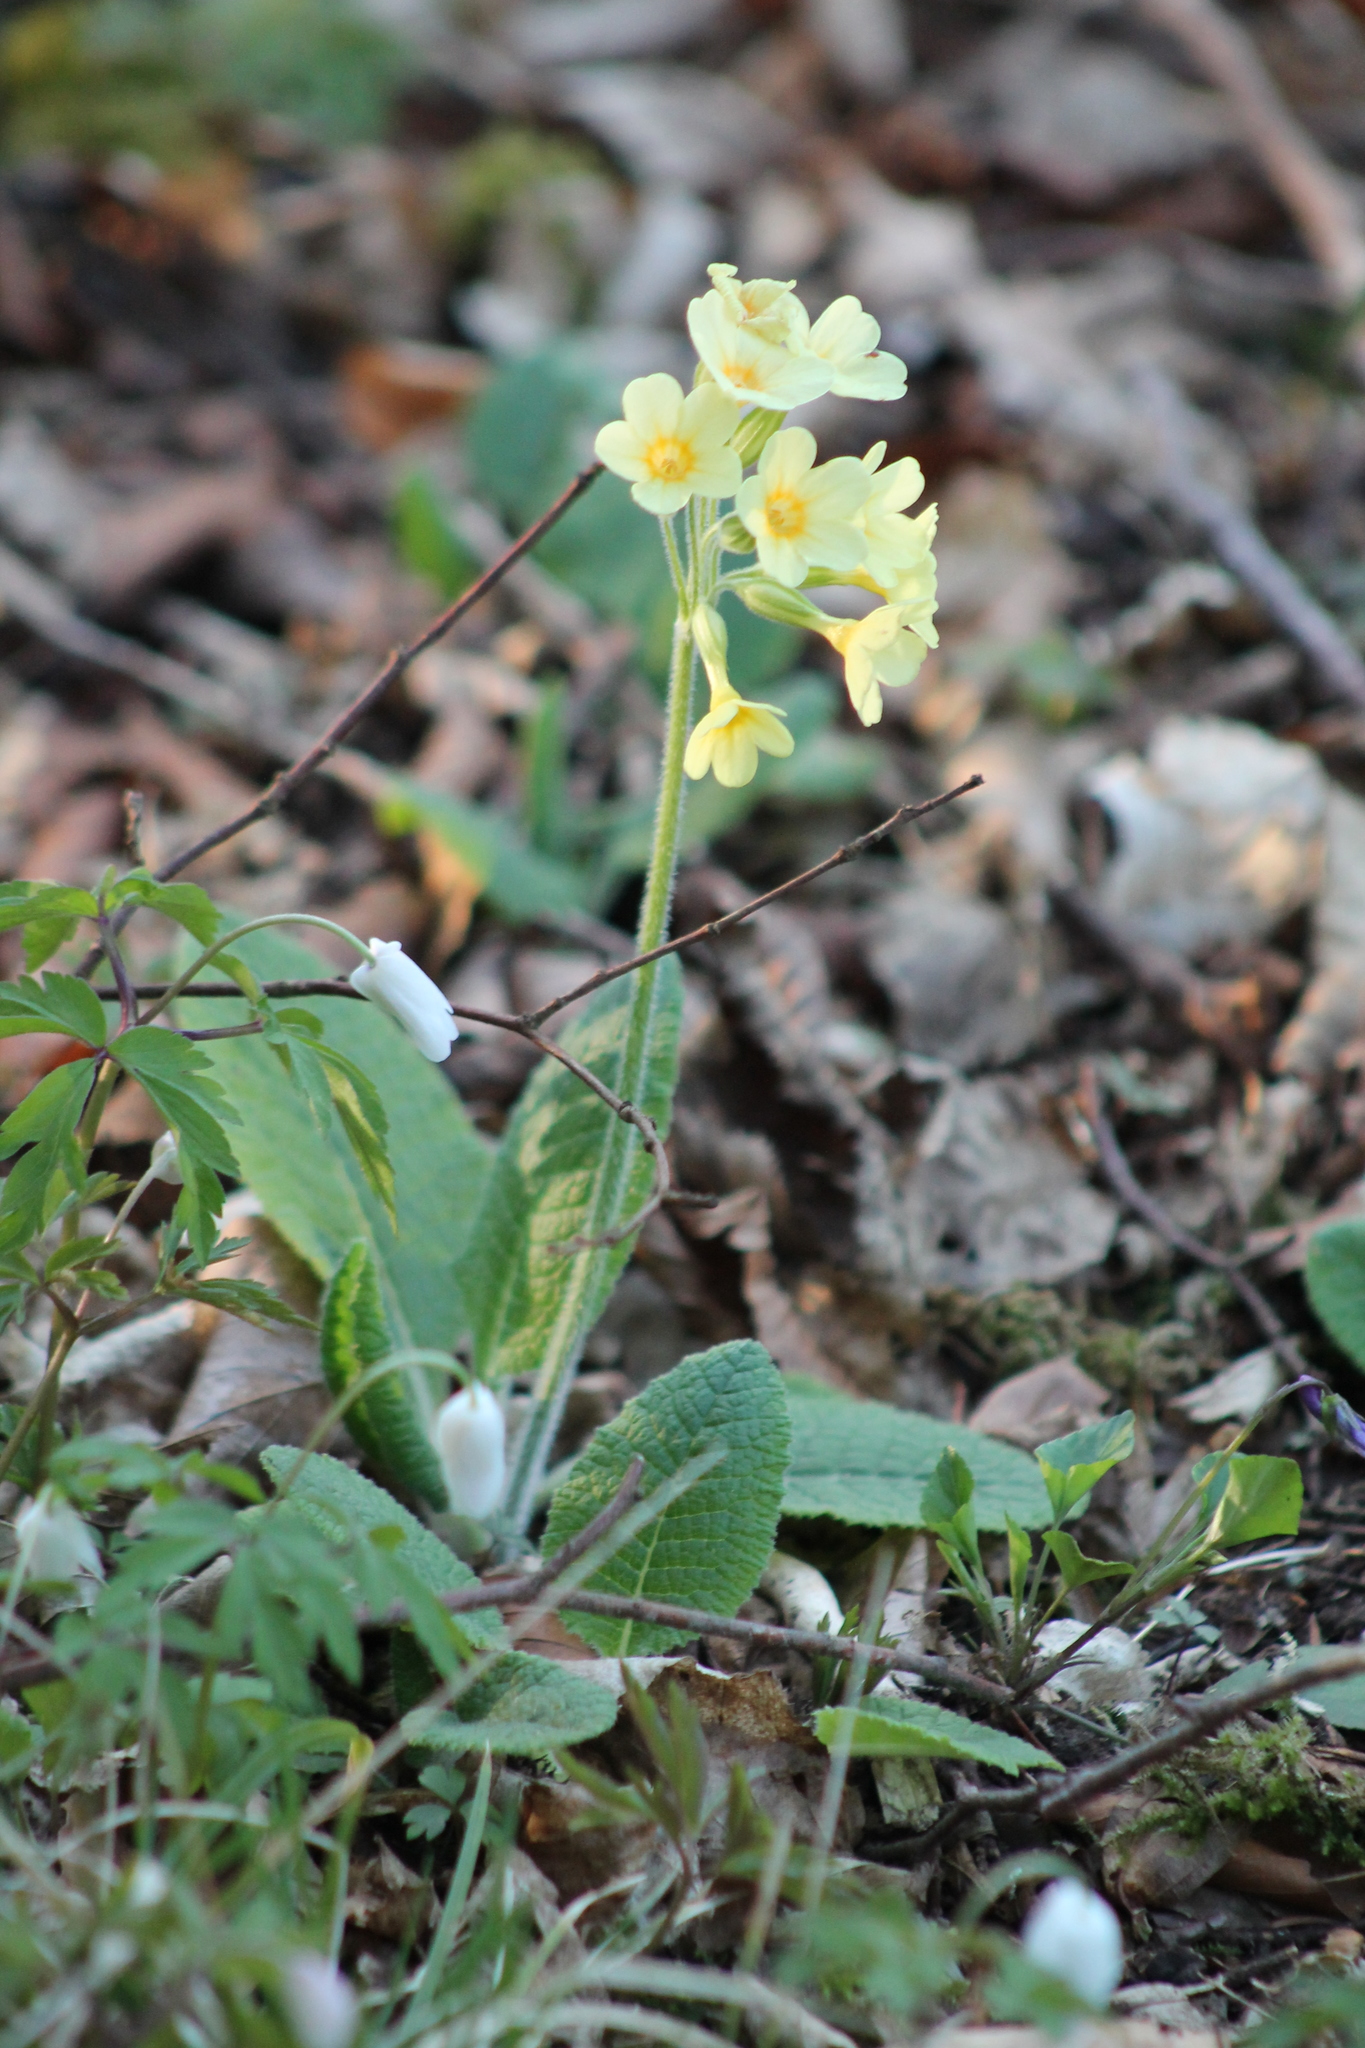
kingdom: Plantae
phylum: Tracheophyta
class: Magnoliopsida
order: Ericales
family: Primulaceae
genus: Primula
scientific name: Primula elatior
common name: Oxlip
